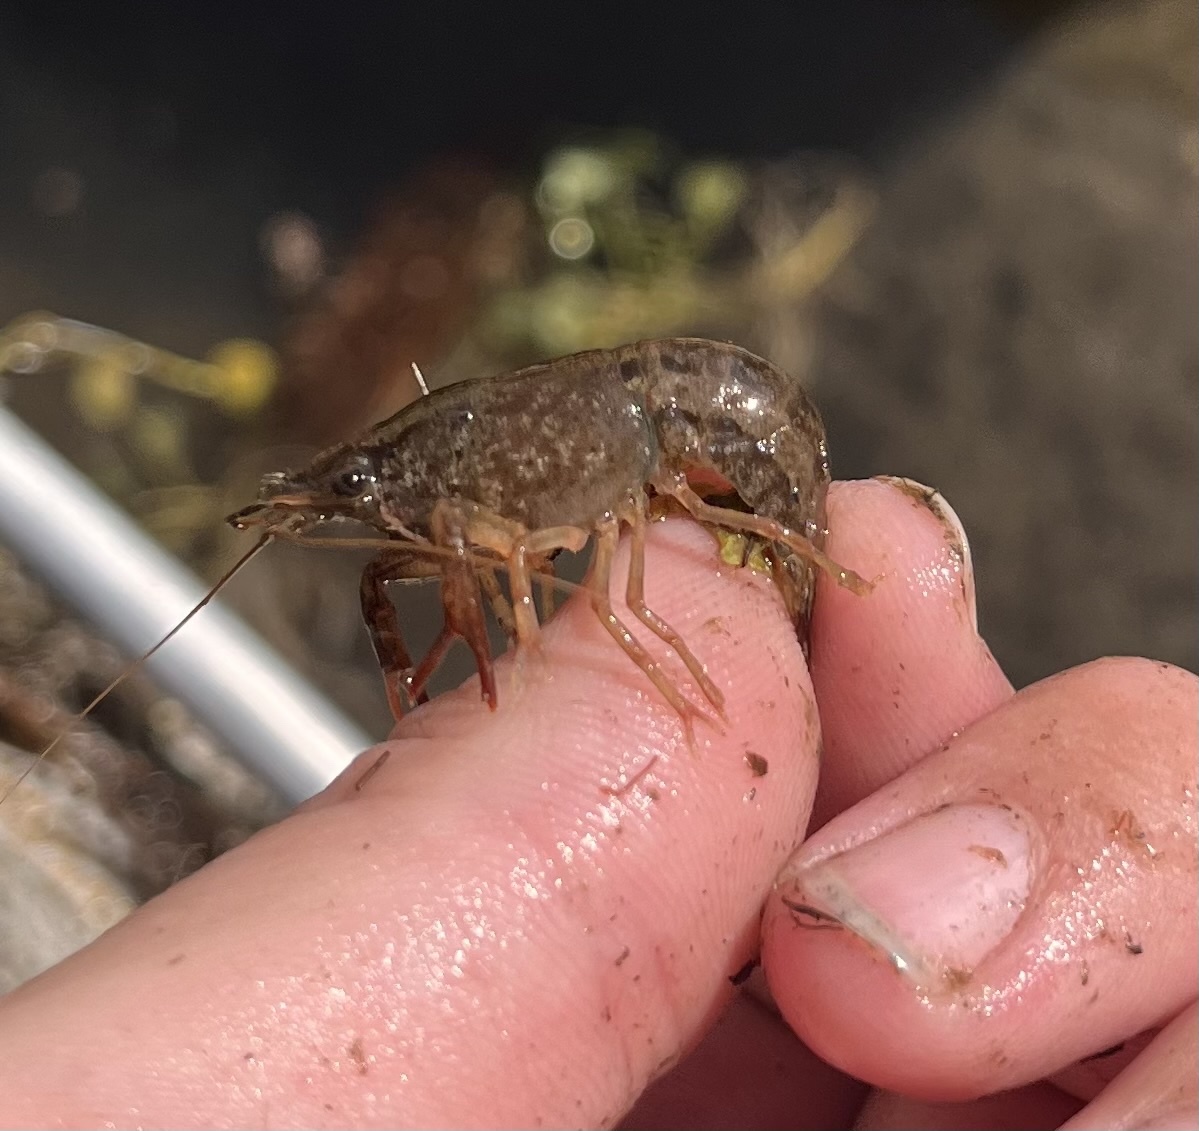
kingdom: Animalia
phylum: Arthropoda
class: Malacostraca
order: Decapoda
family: Cambaridae
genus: Procambarus
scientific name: Procambarus clarkii
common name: Red swamp crayfish
